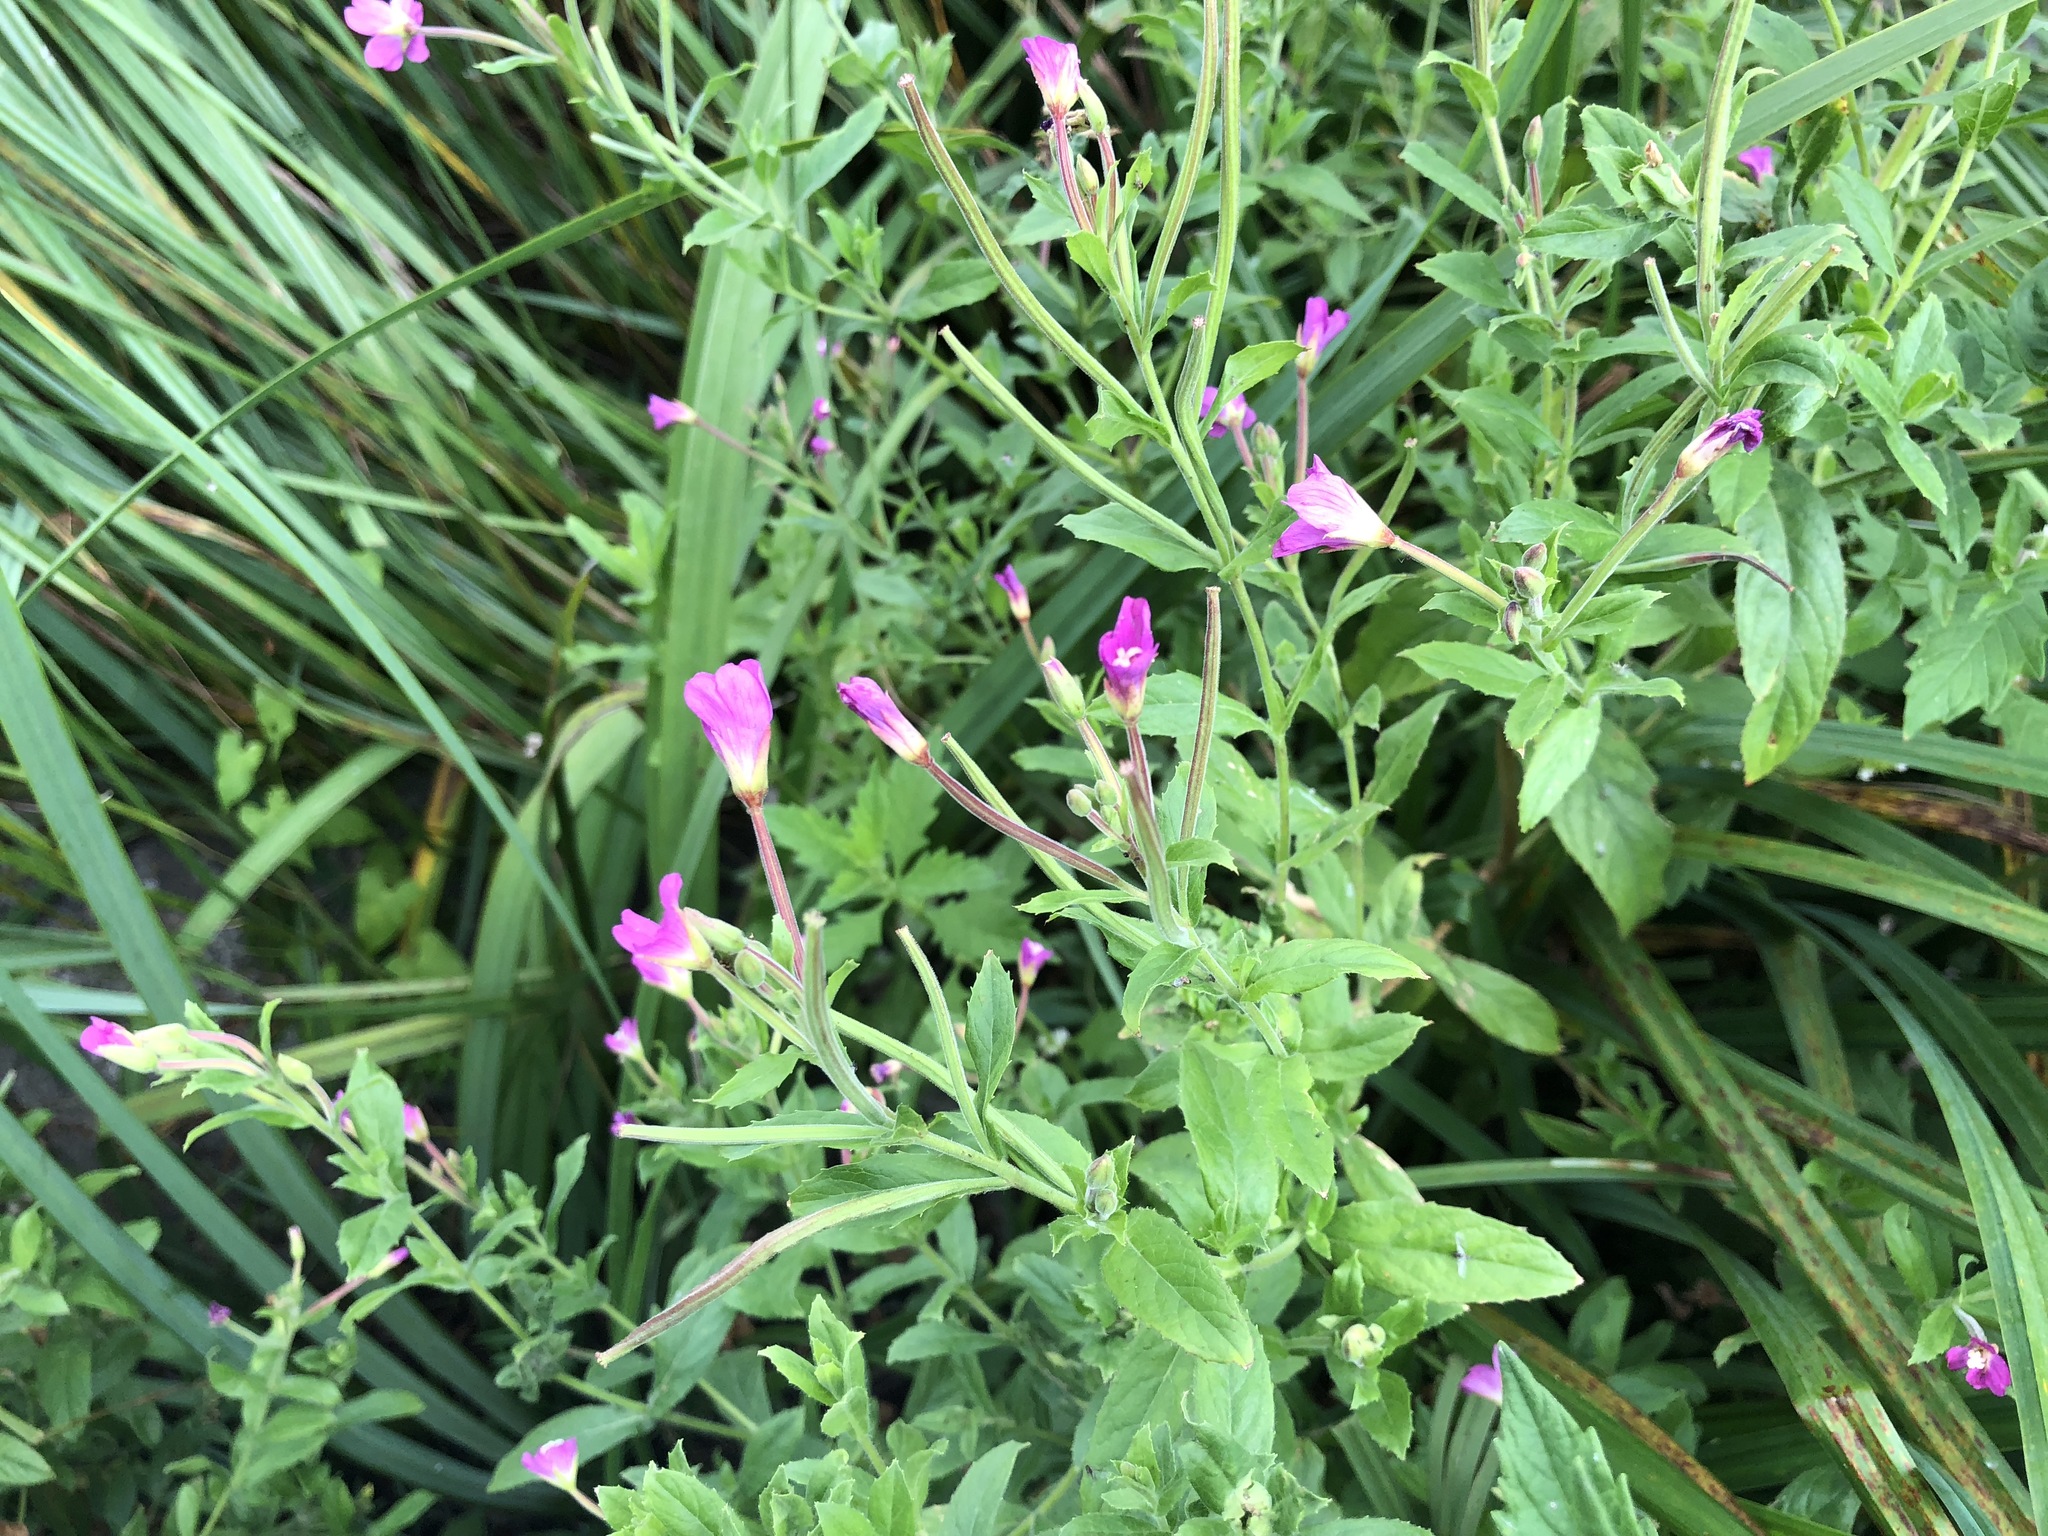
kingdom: Plantae
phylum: Tracheophyta
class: Magnoliopsida
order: Myrtales
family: Onagraceae
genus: Epilobium
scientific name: Epilobium hirsutum
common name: Great willowherb
